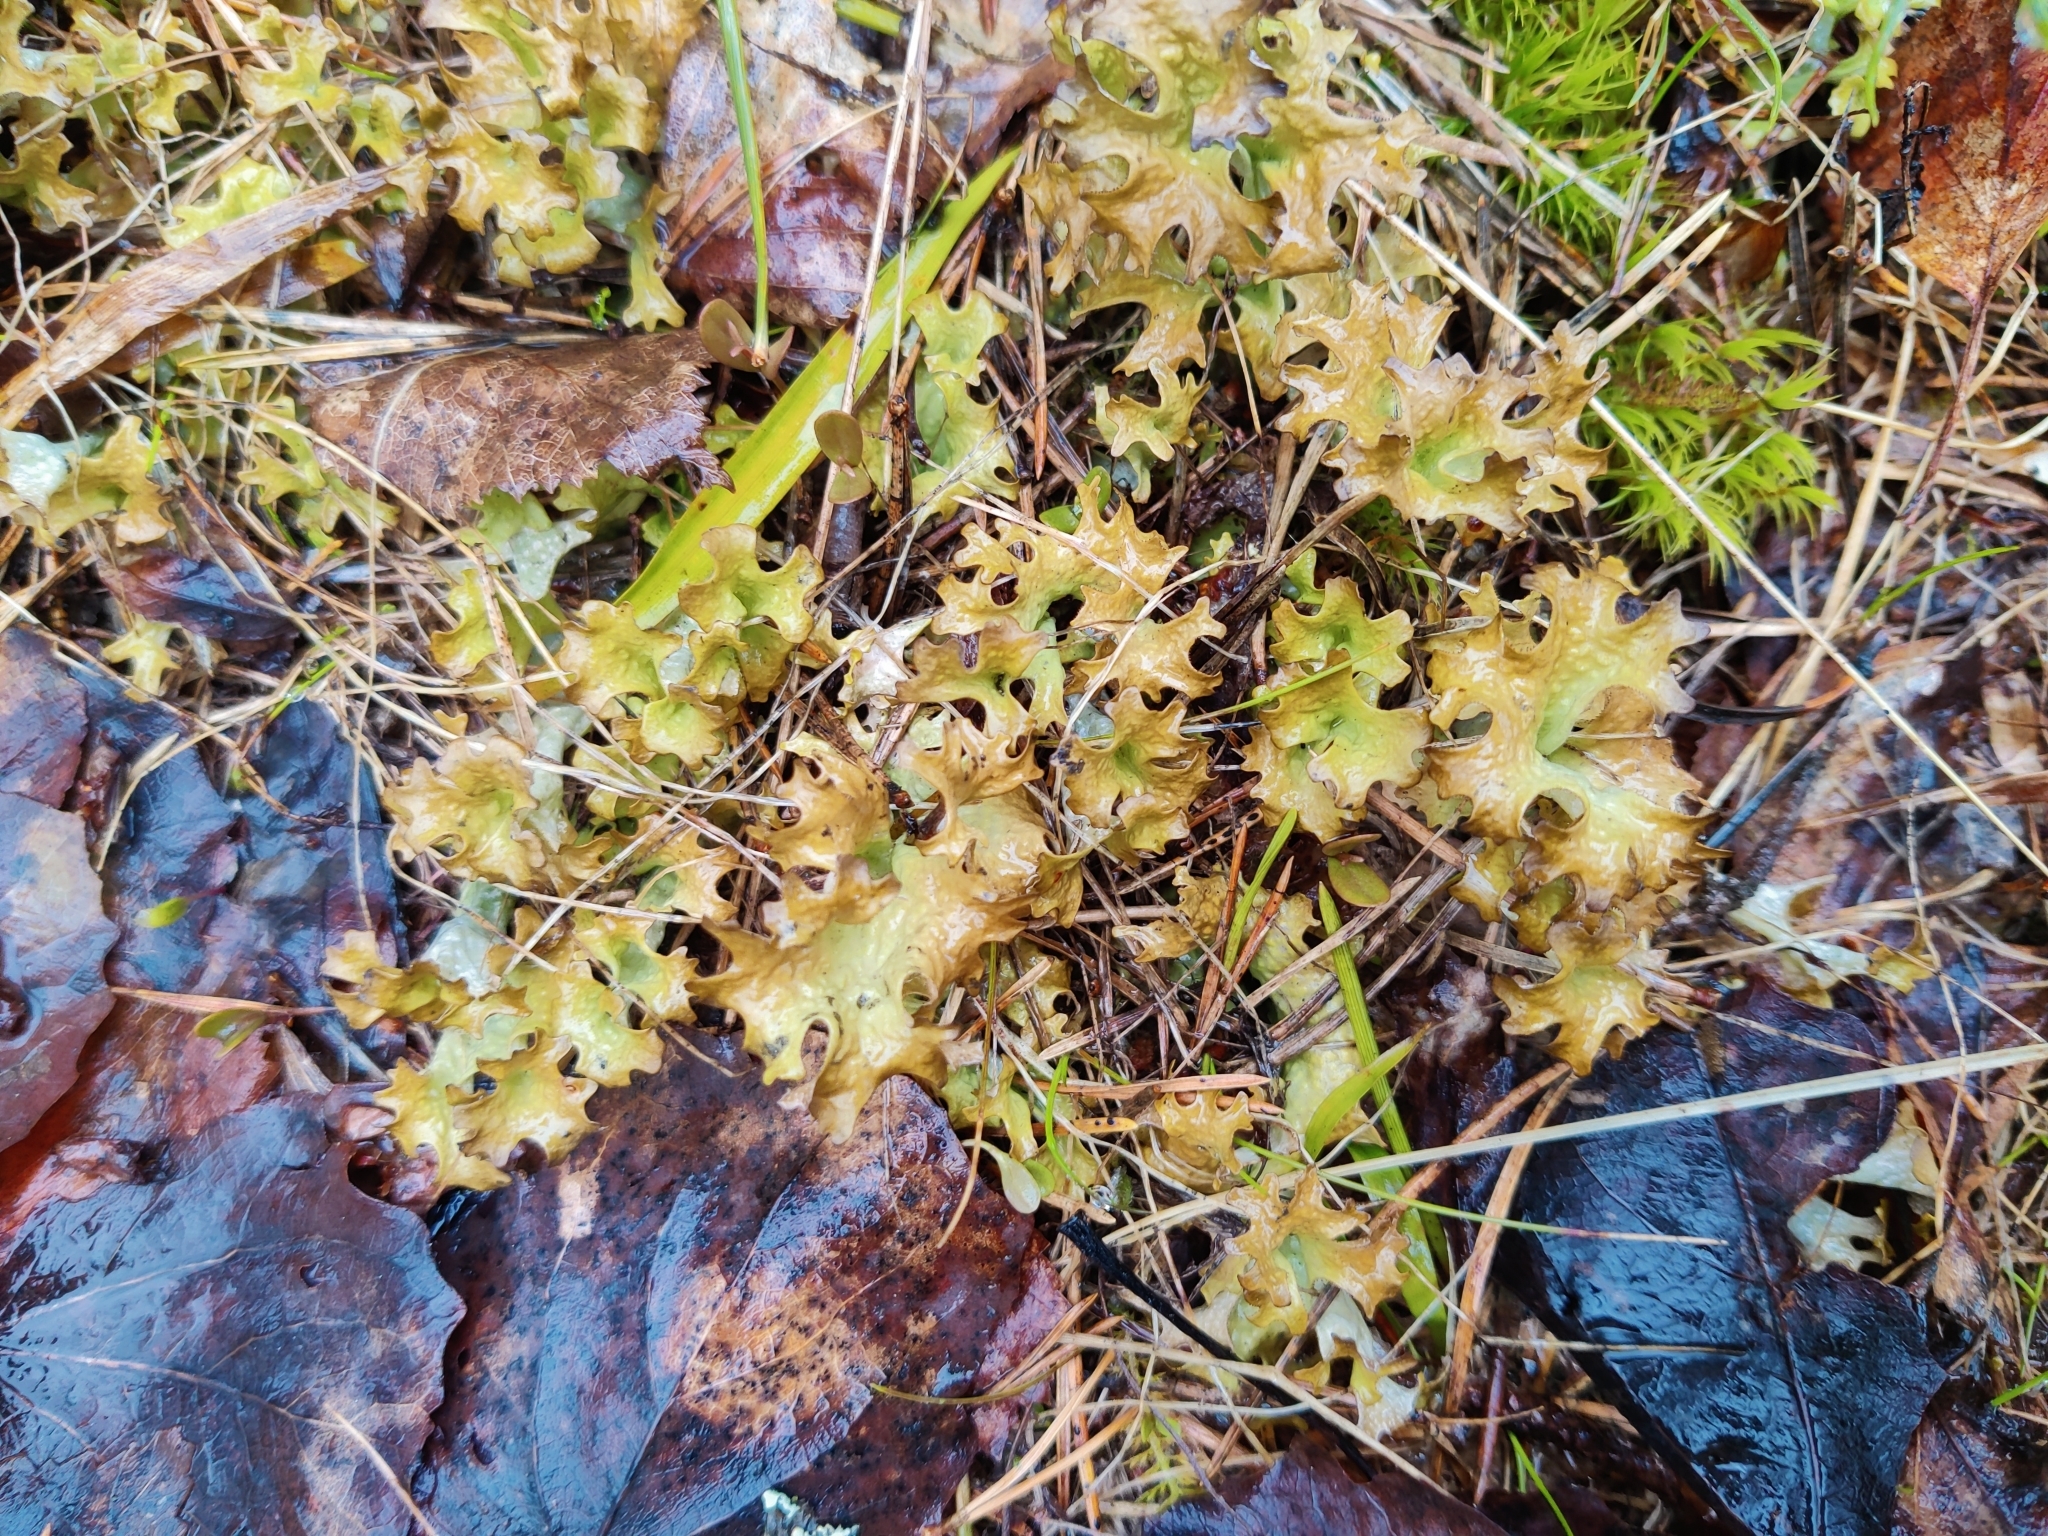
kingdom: Fungi
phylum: Ascomycota
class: Lecanoromycetes
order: Lecanorales
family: Parmeliaceae
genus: Cetraria
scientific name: Cetraria islandica
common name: Iceland lichen
